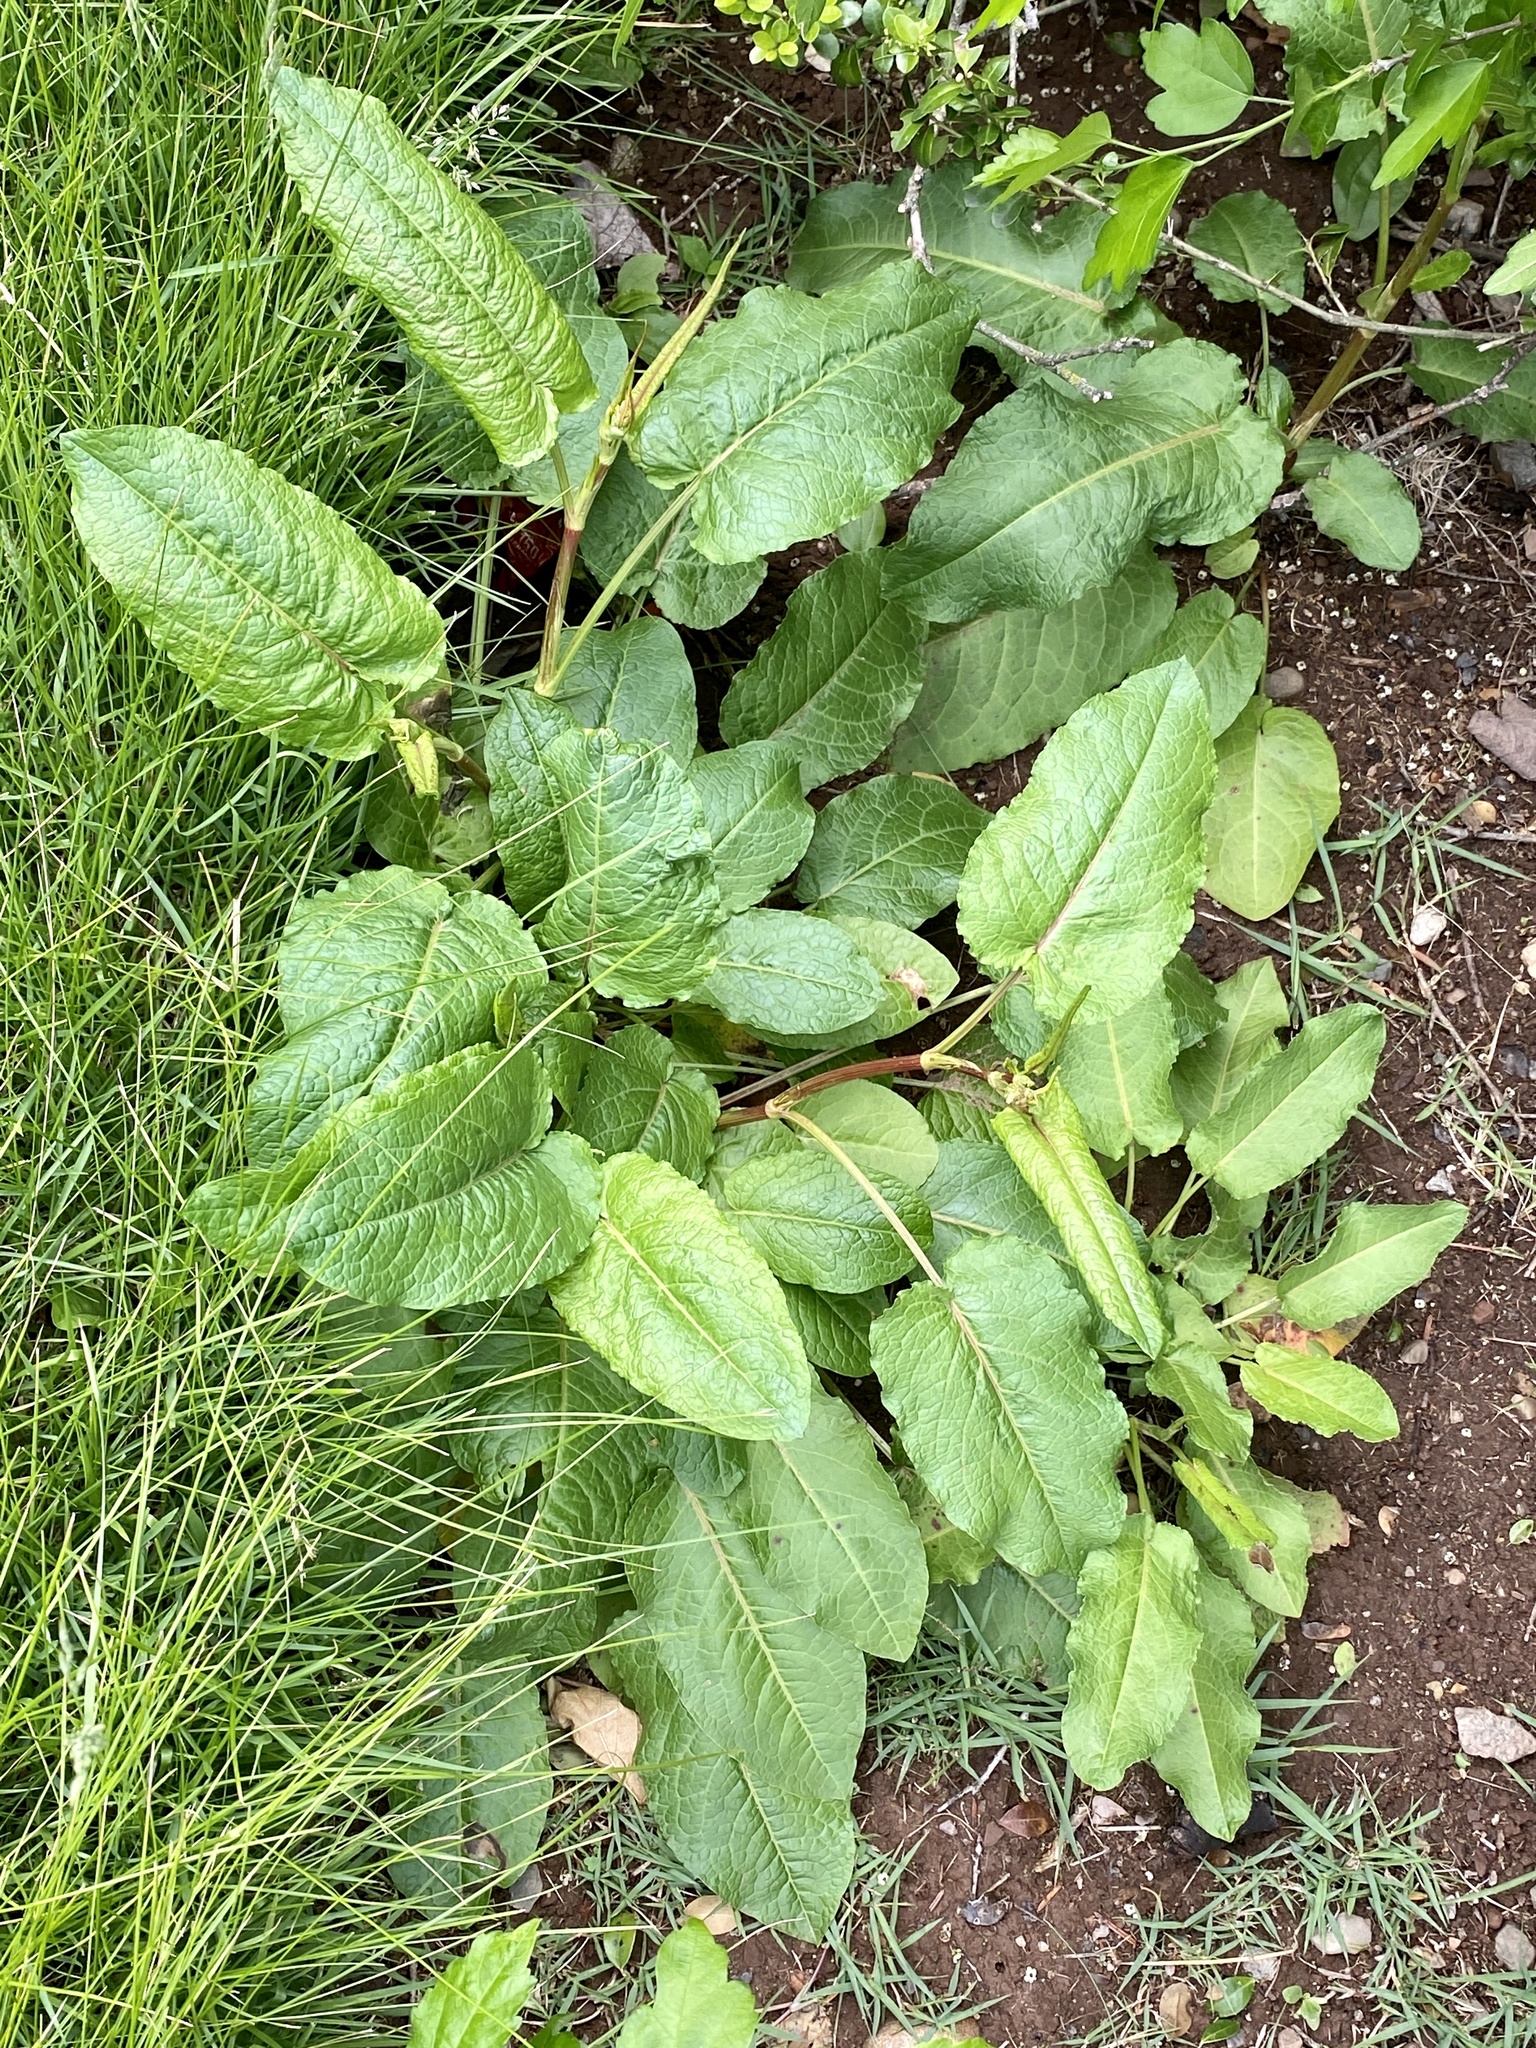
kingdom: Plantae
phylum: Tracheophyta
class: Magnoliopsida
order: Caryophyllales
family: Polygonaceae
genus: Rumex
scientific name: Rumex obtusifolius
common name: Bitter dock
